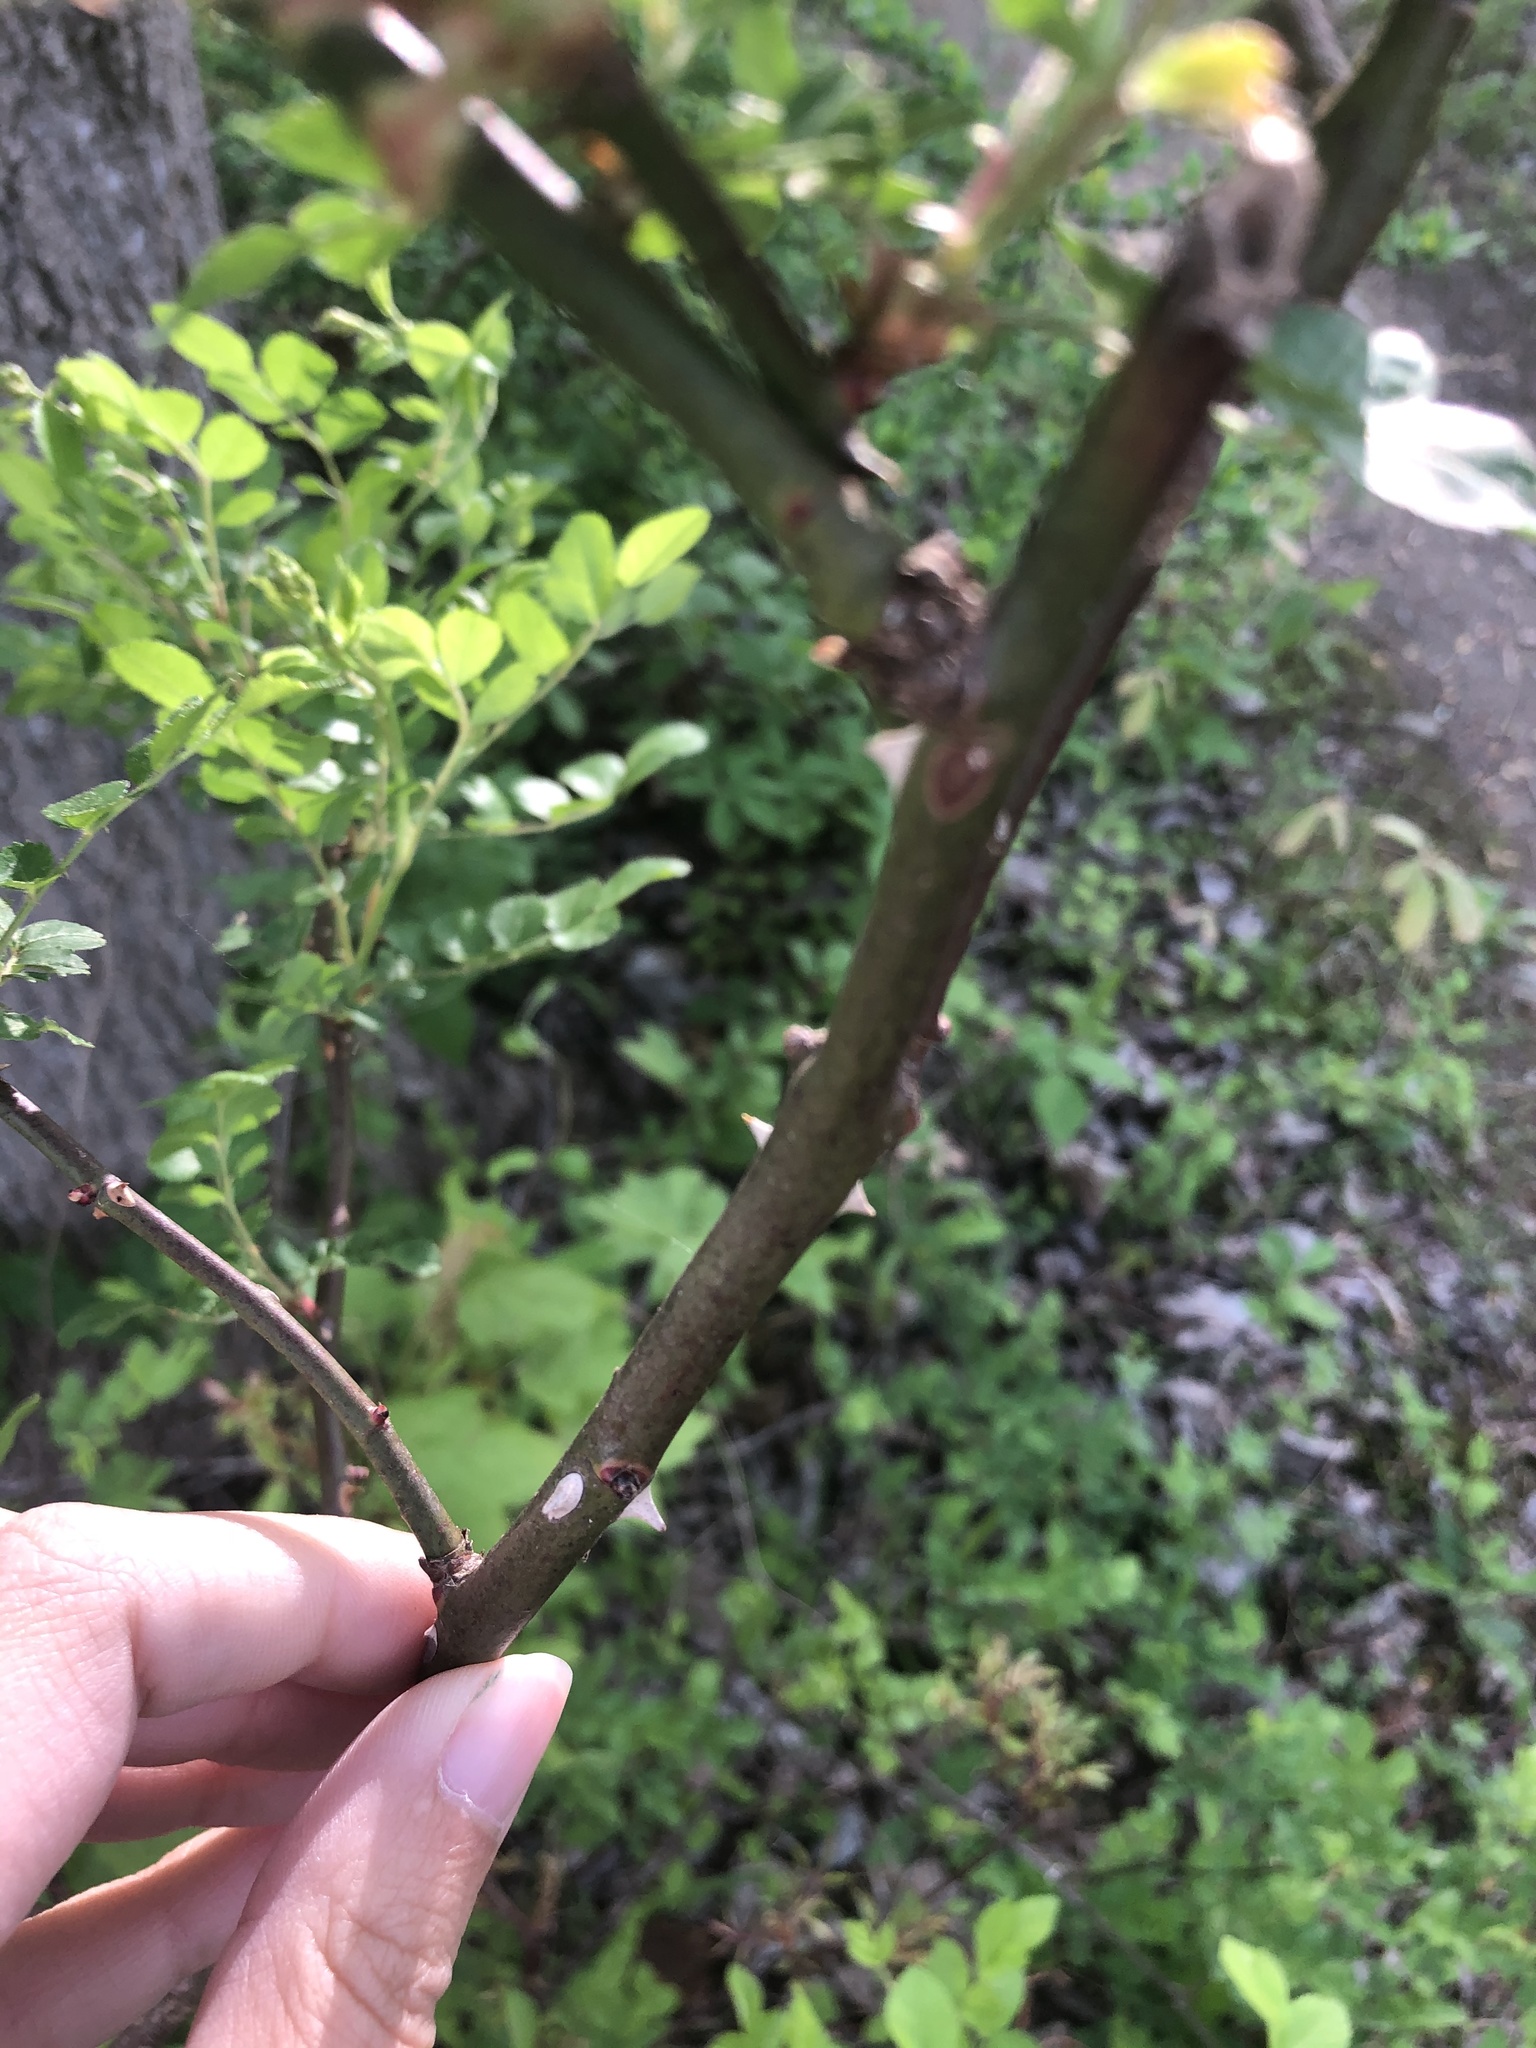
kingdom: Plantae
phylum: Tracheophyta
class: Magnoliopsida
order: Rosales
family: Rosaceae
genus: Rosa
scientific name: Rosa multiflora
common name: Multiflora rose
